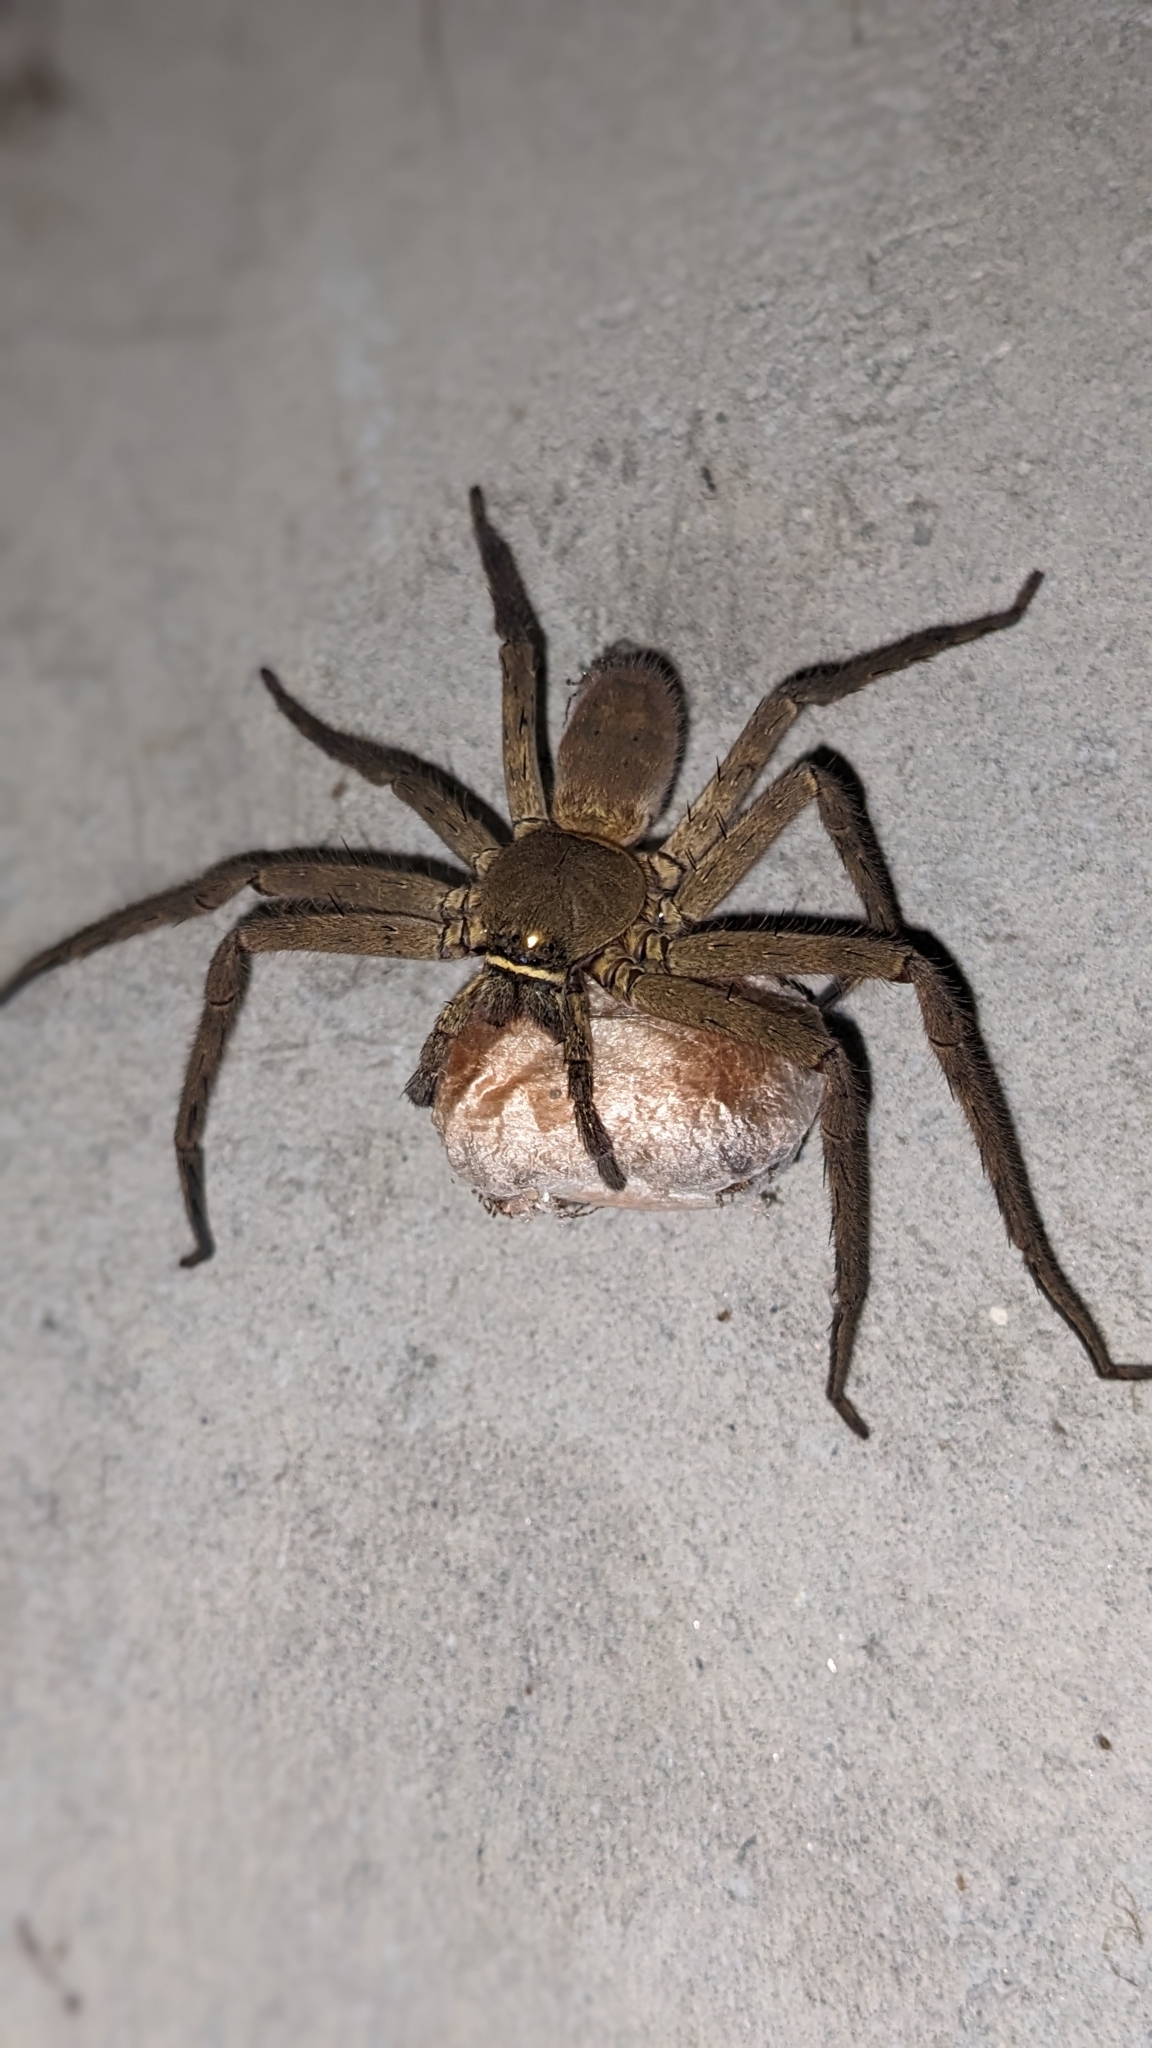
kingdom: Animalia
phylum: Arthropoda
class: Arachnida
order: Araneae
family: Sparassidae
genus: Heteropoda
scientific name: Heteropoda venatoria
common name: Huntsman spider
